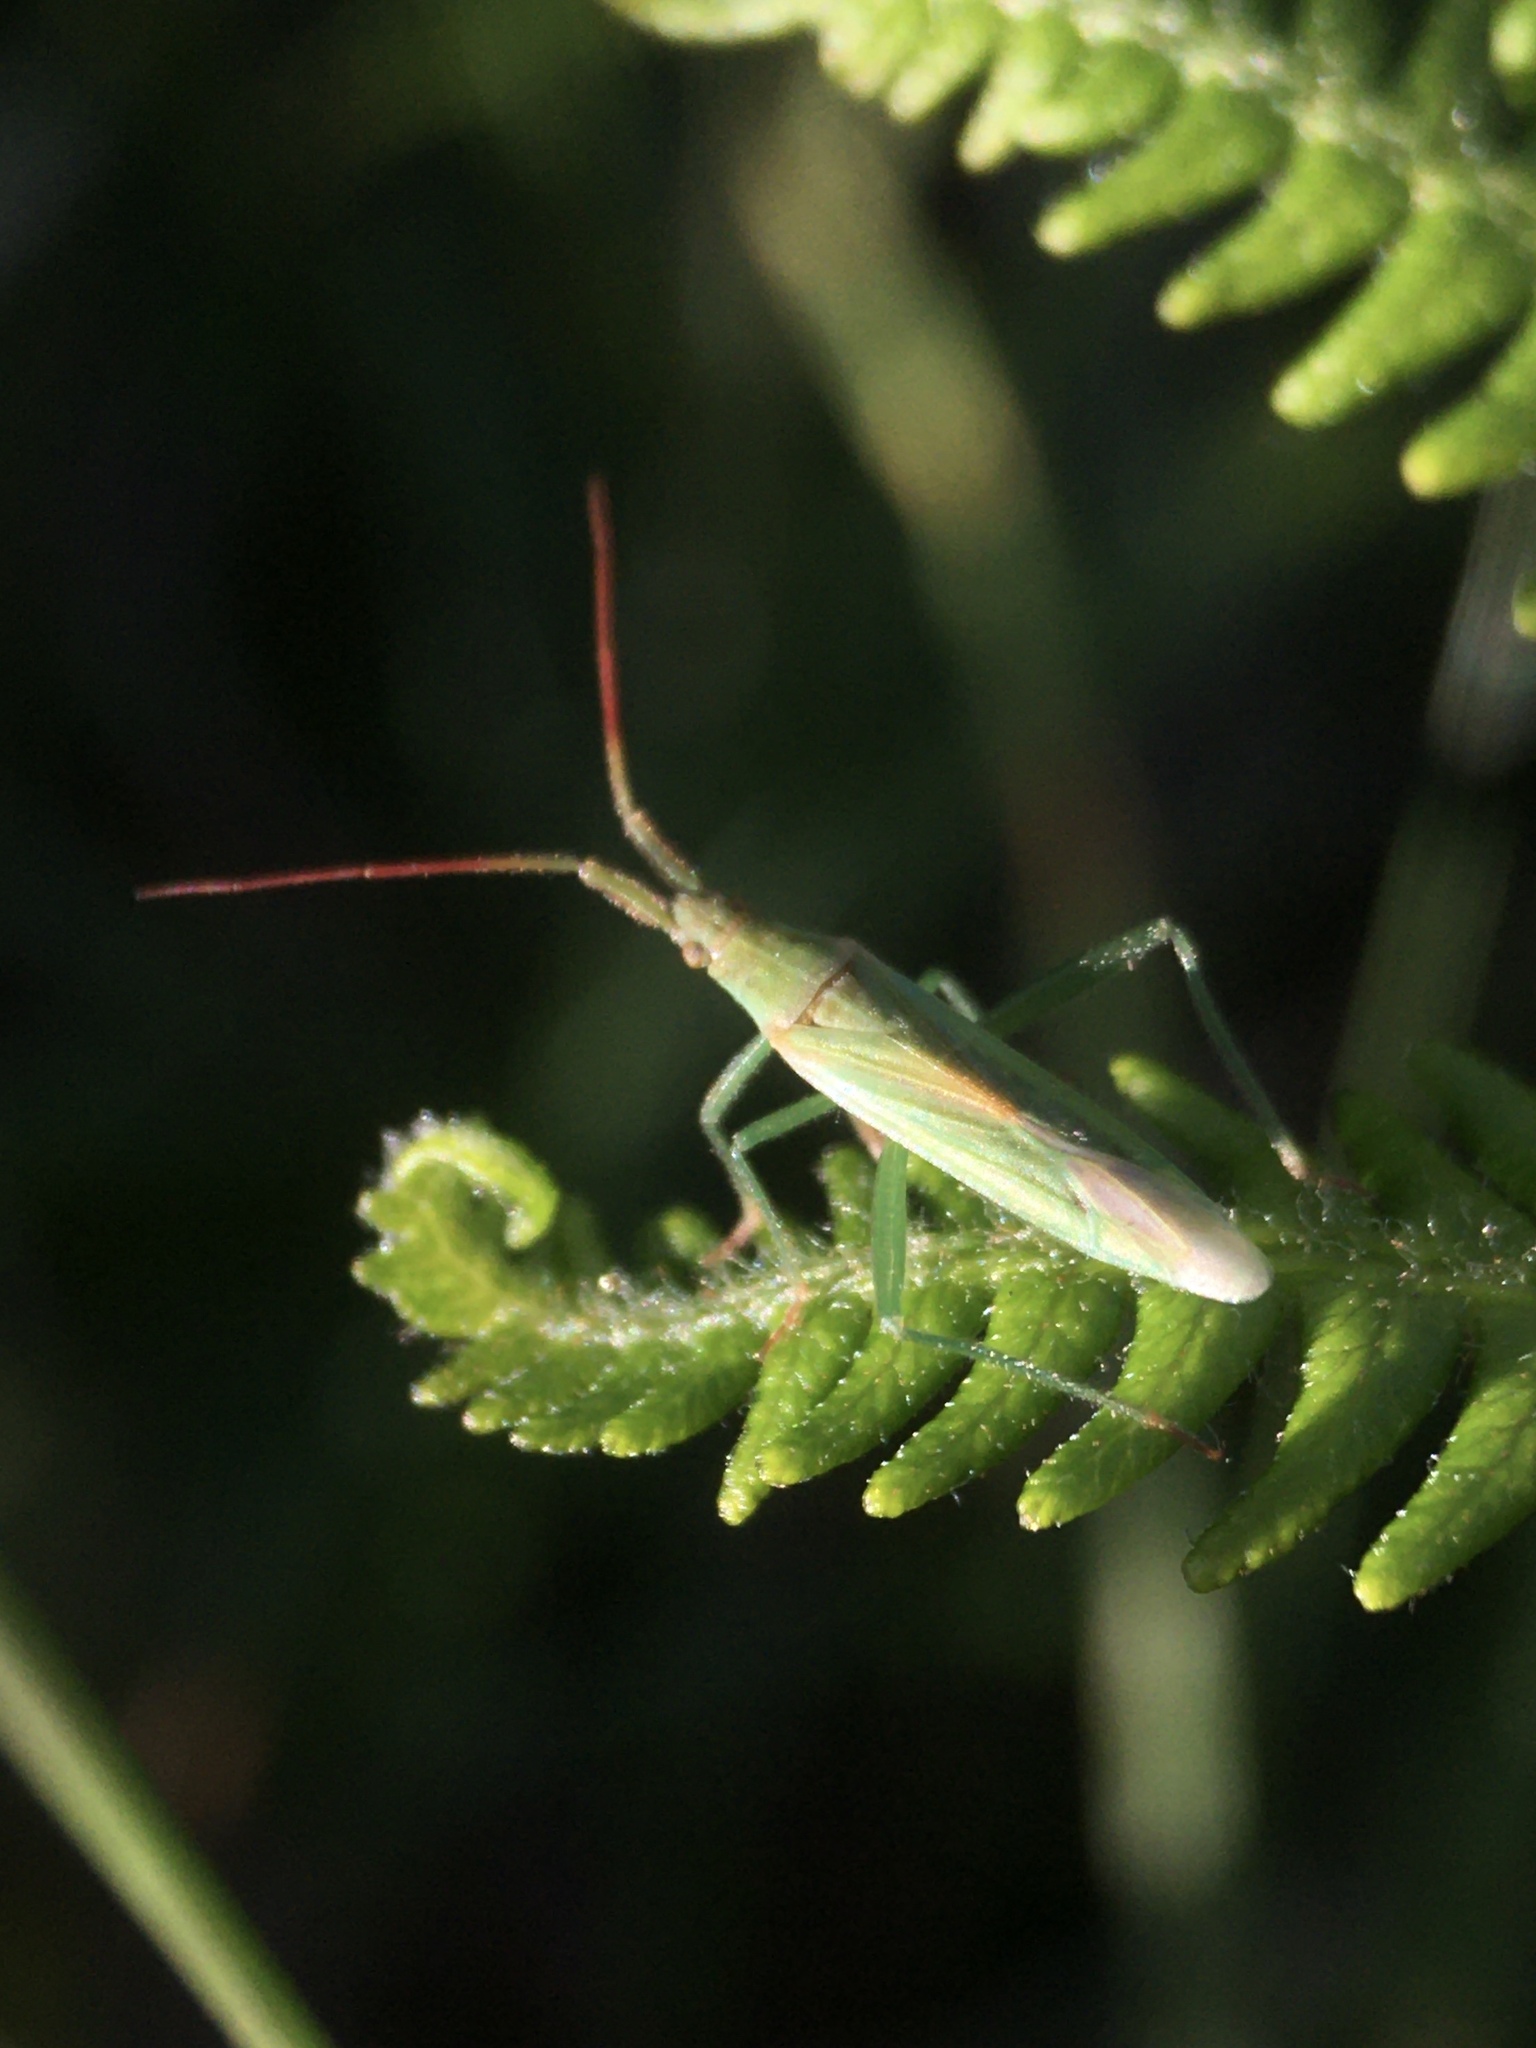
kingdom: Animalia
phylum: Arthropoda
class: Insecta
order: Hemiptera
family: Miridae
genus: Stenodema
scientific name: Stenodema laevigata
